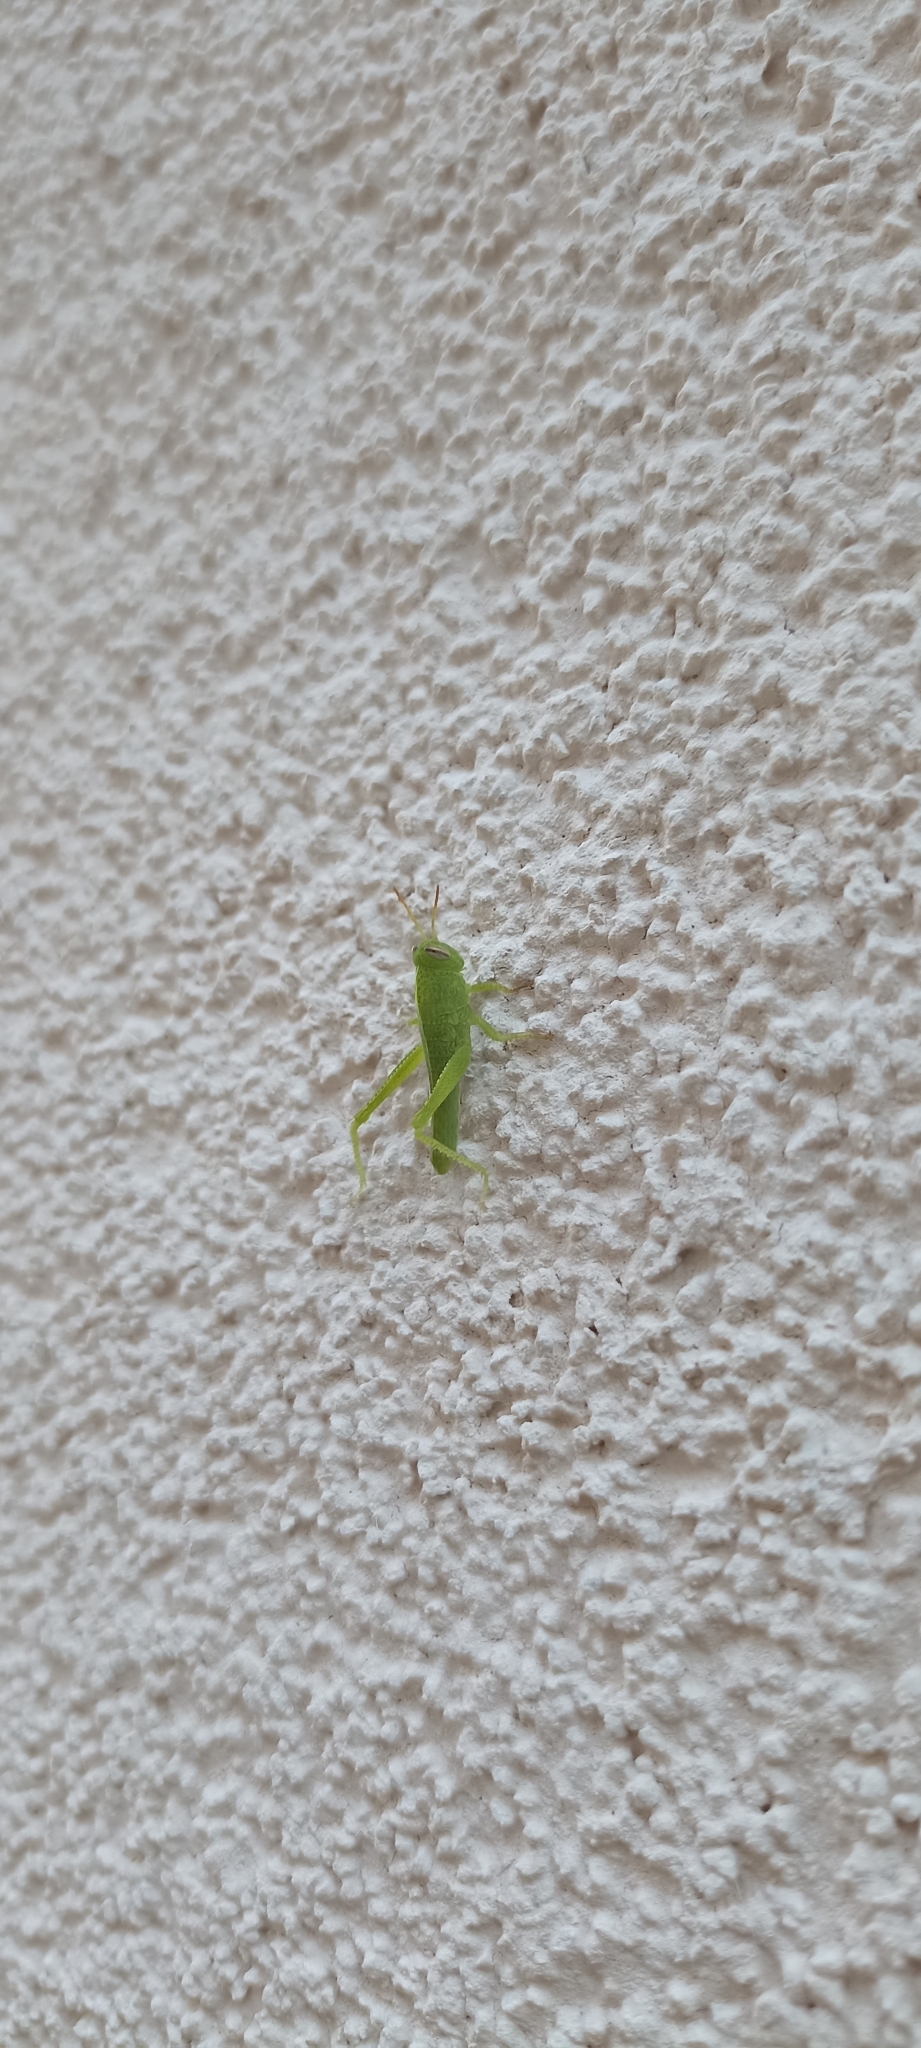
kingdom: Animalia
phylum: Arthropoda
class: Insecta
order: Orthoptera
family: Acrididae
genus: Anacridium
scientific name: Anacridium aegyptium
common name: Egyptian grasshopper
